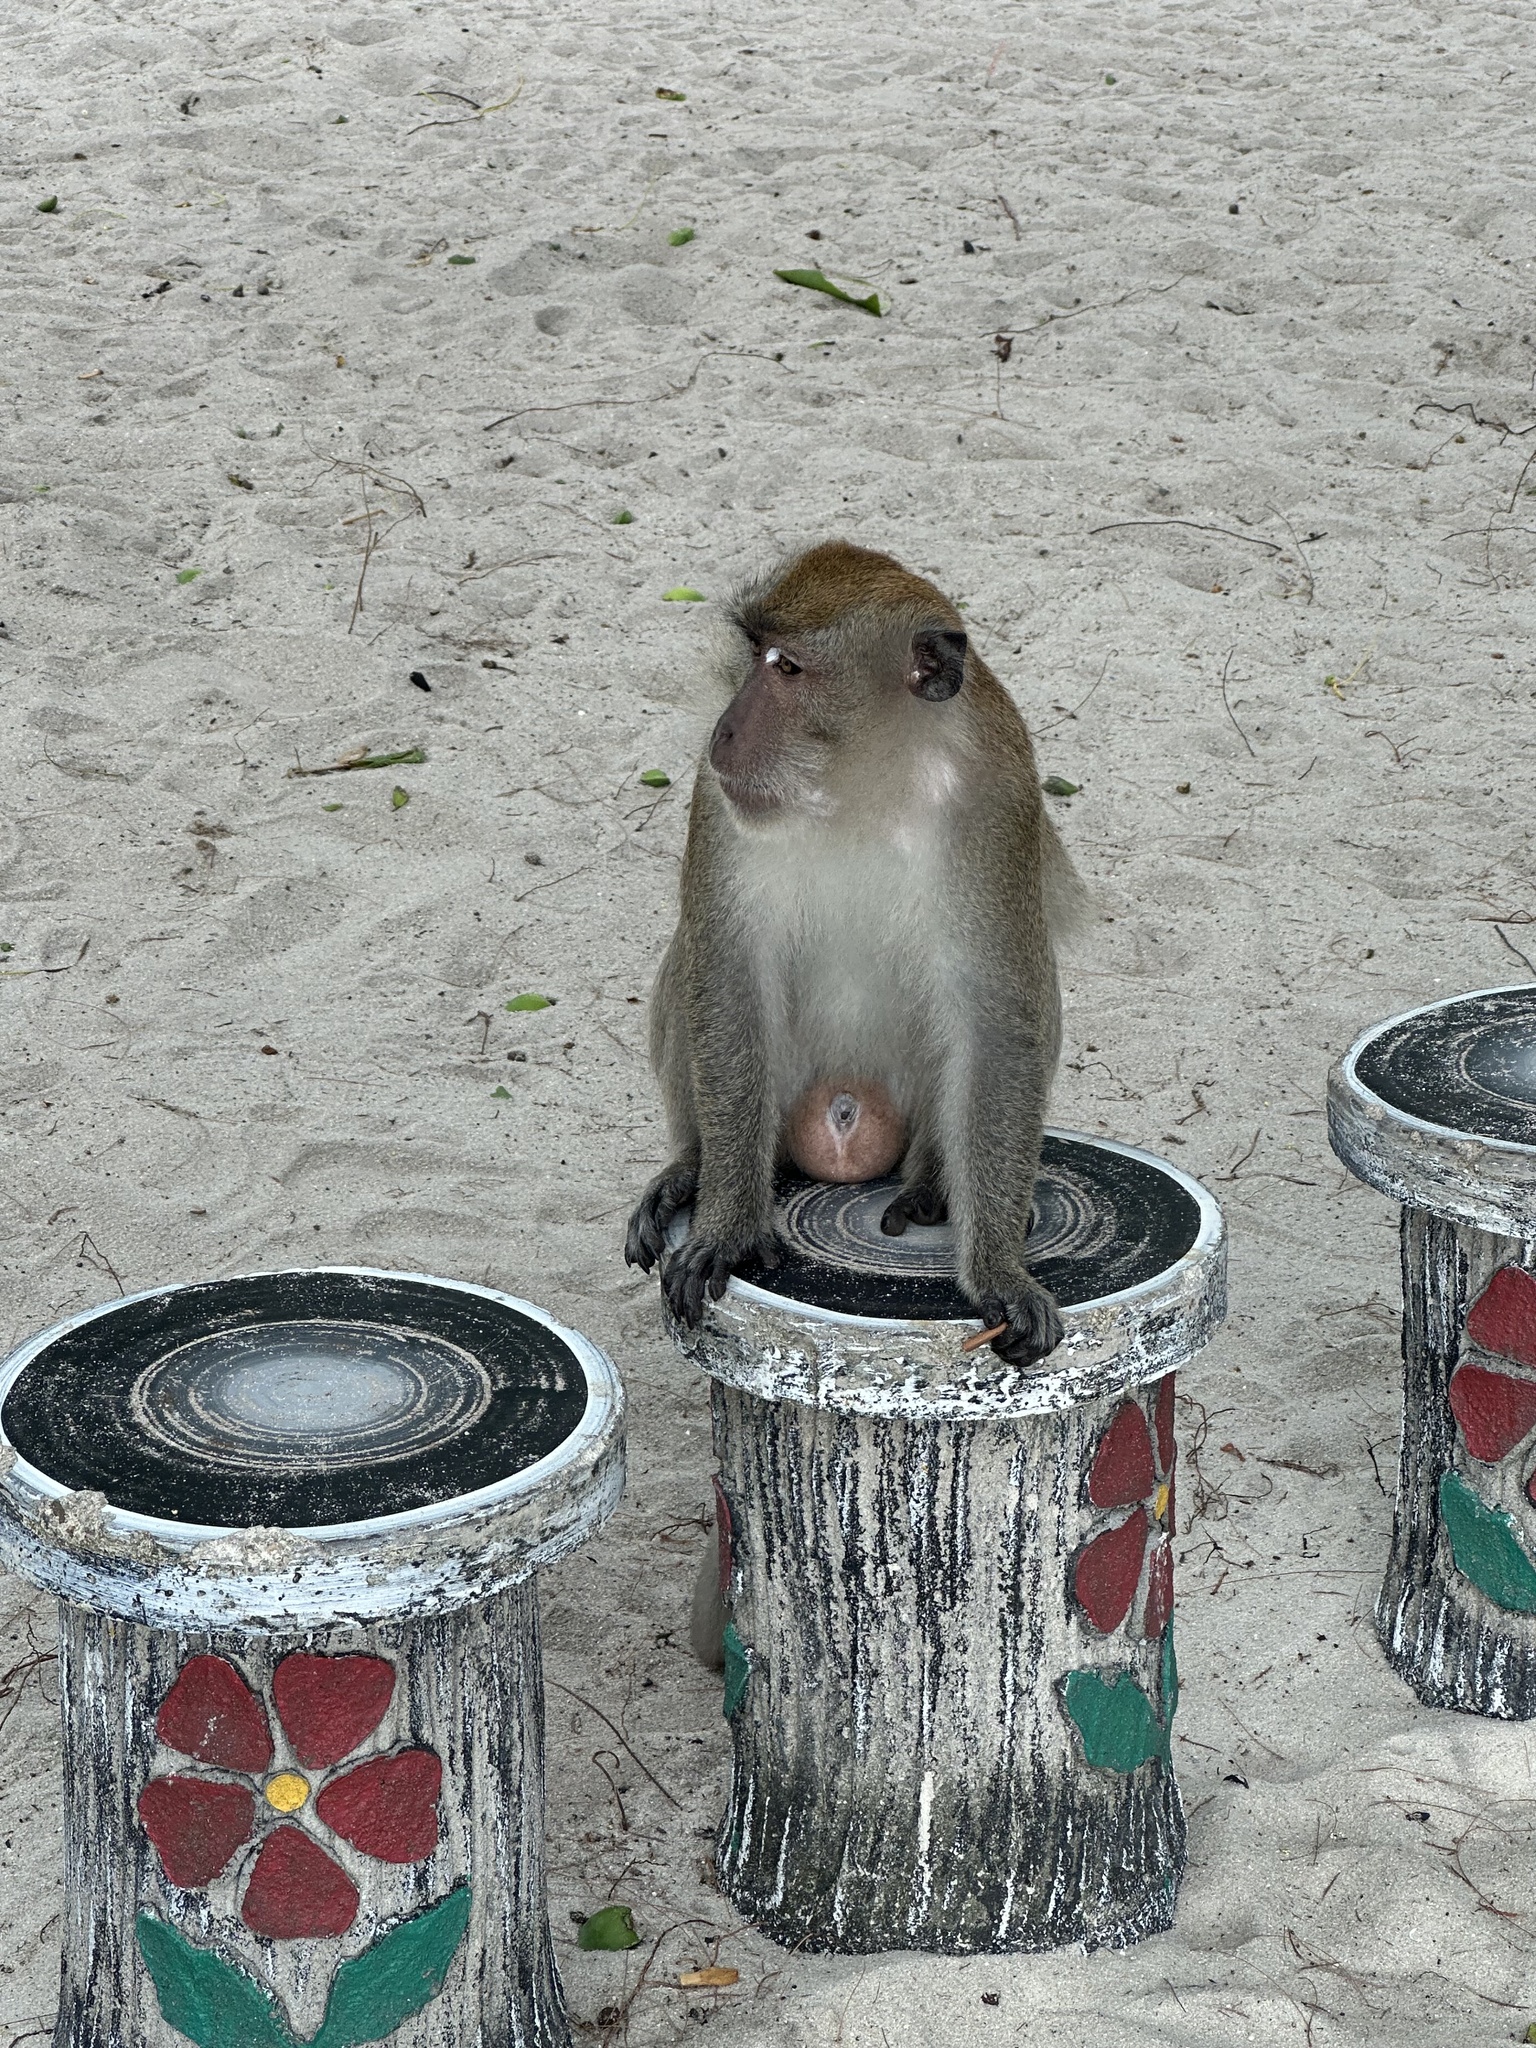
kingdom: Animalia
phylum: Chordata
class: Mammalia
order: Primates
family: Cercopithecidae
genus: Macaca
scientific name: Macaca fascicularis
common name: Crab-eating macaque
